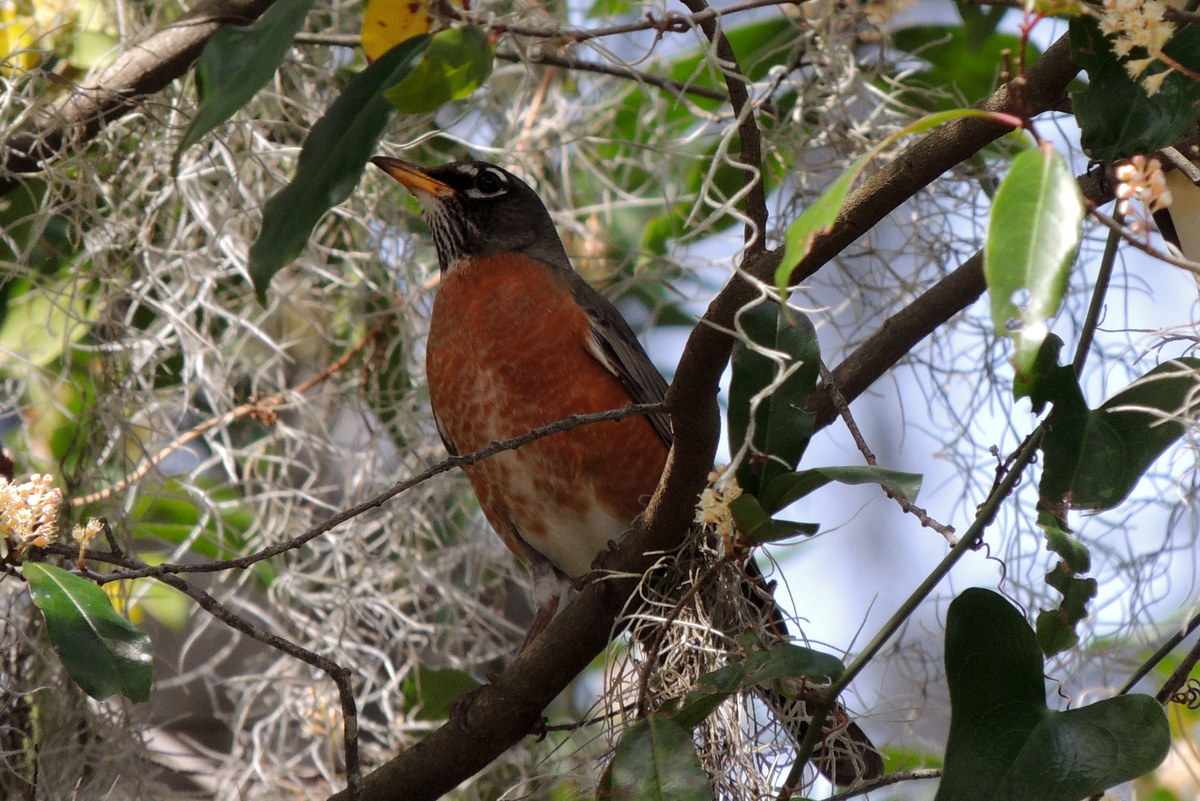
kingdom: Animalia
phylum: Chordata
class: Aves
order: Passeriformes
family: Turdidae
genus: Turdus
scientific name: Turdus migratorius
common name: American robin
